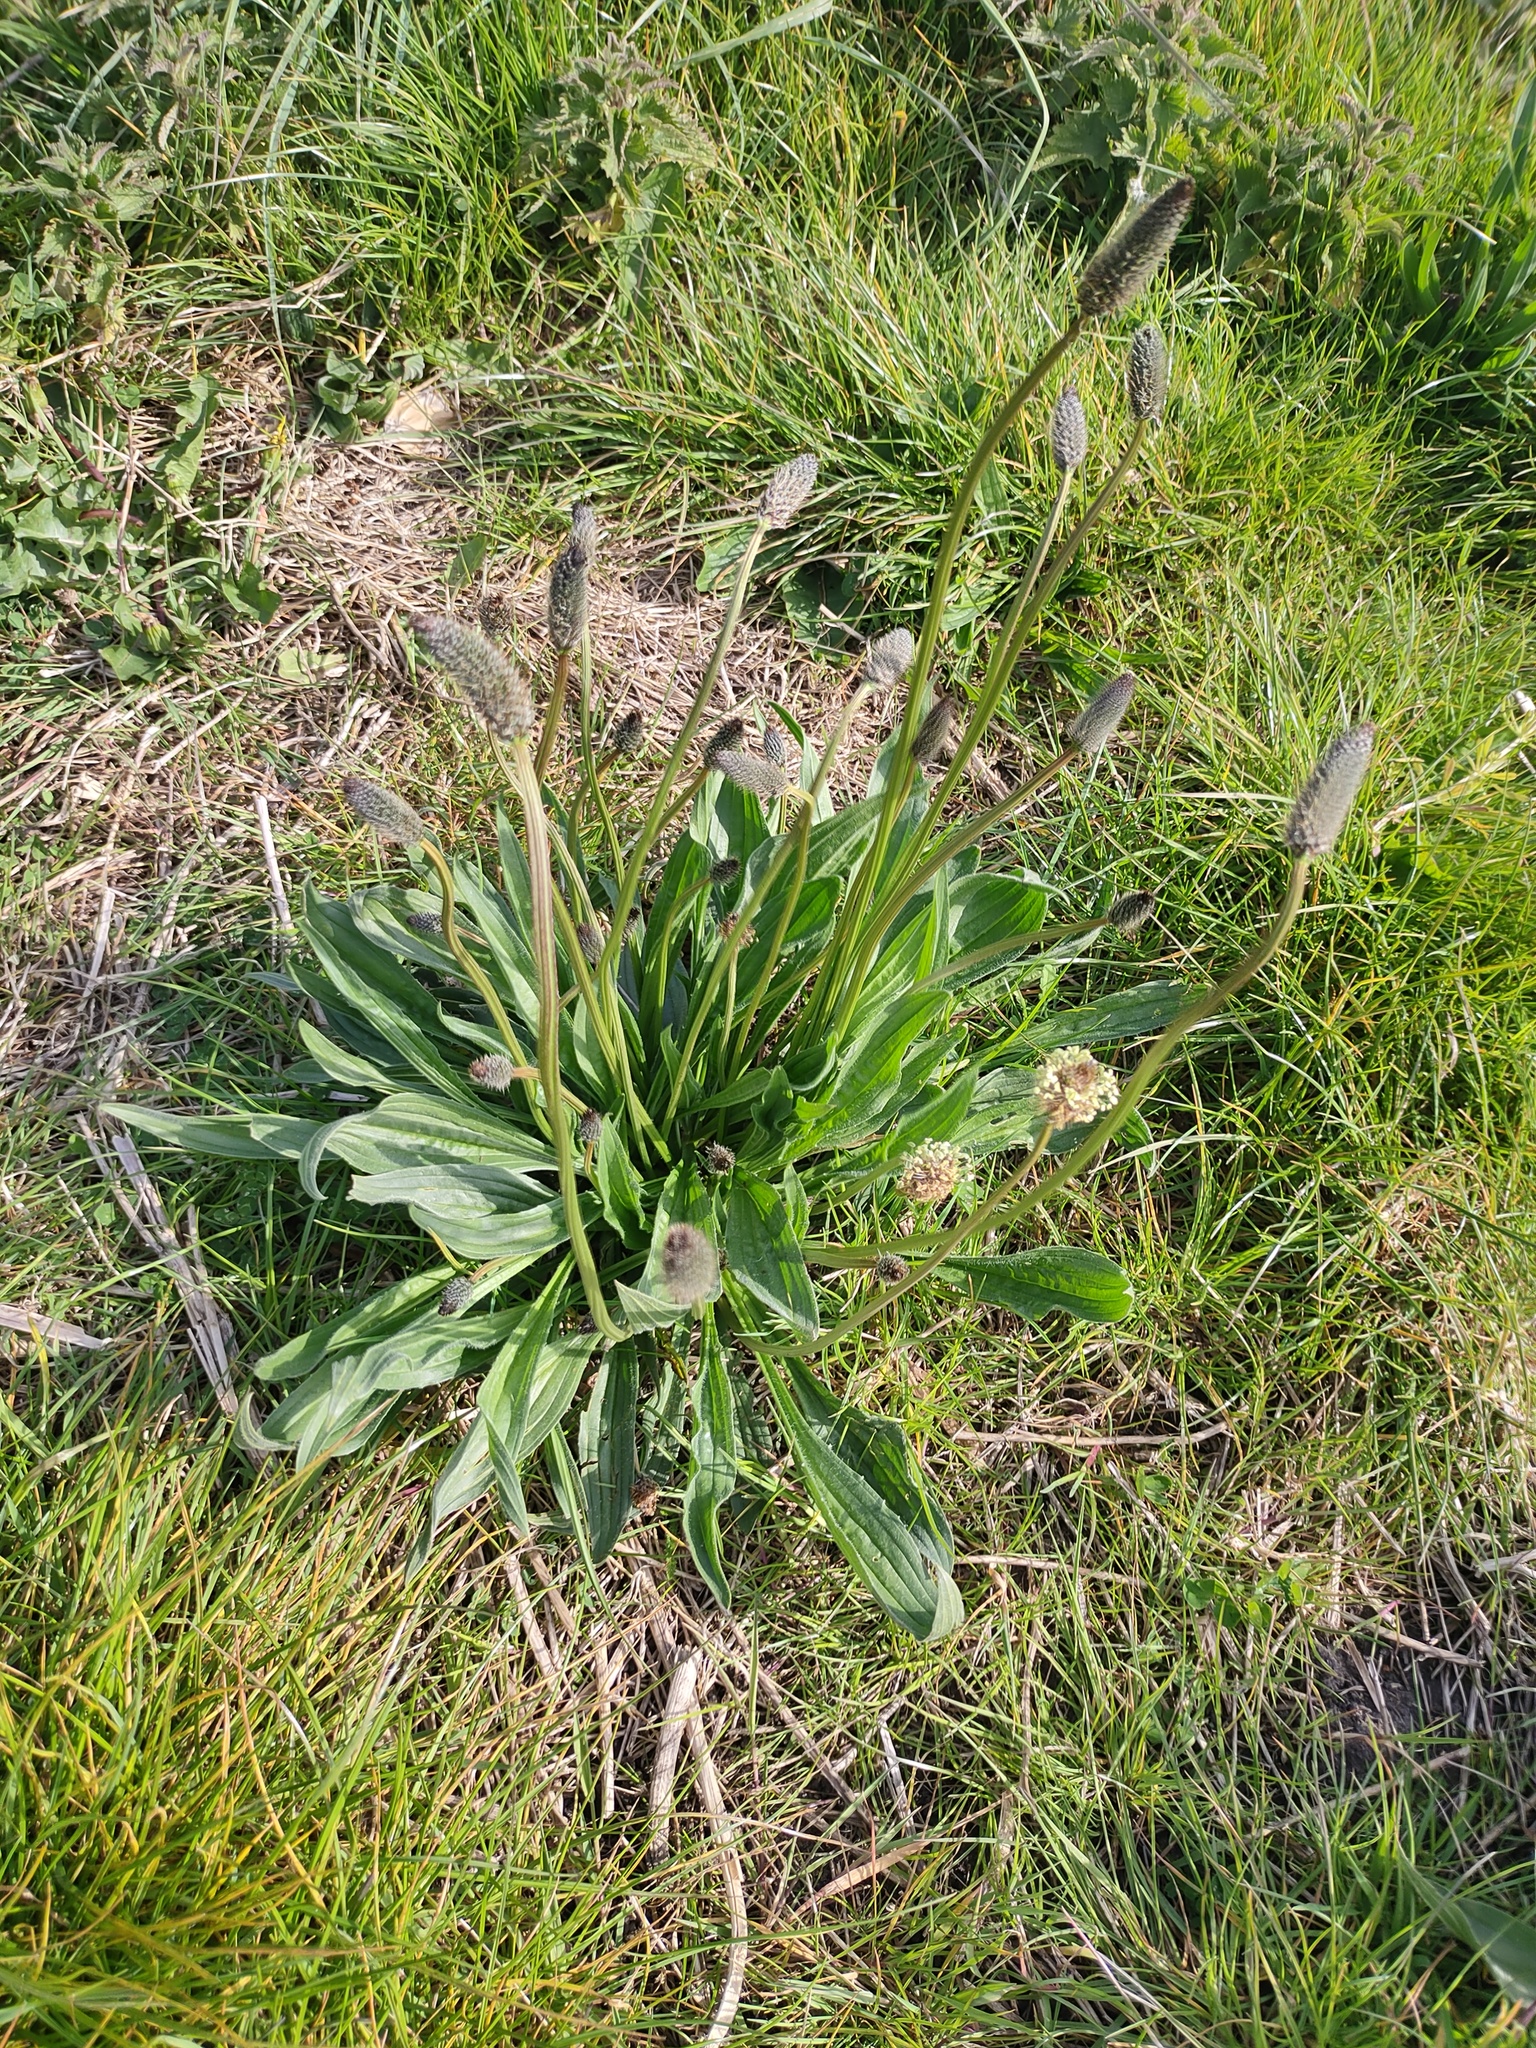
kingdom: Plantae
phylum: Tracheophyta
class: Magnoliopsida
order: Lamiales
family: Plantaginaceae
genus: Plantago
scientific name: Plantago lanceolata
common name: Ribwort plantain
